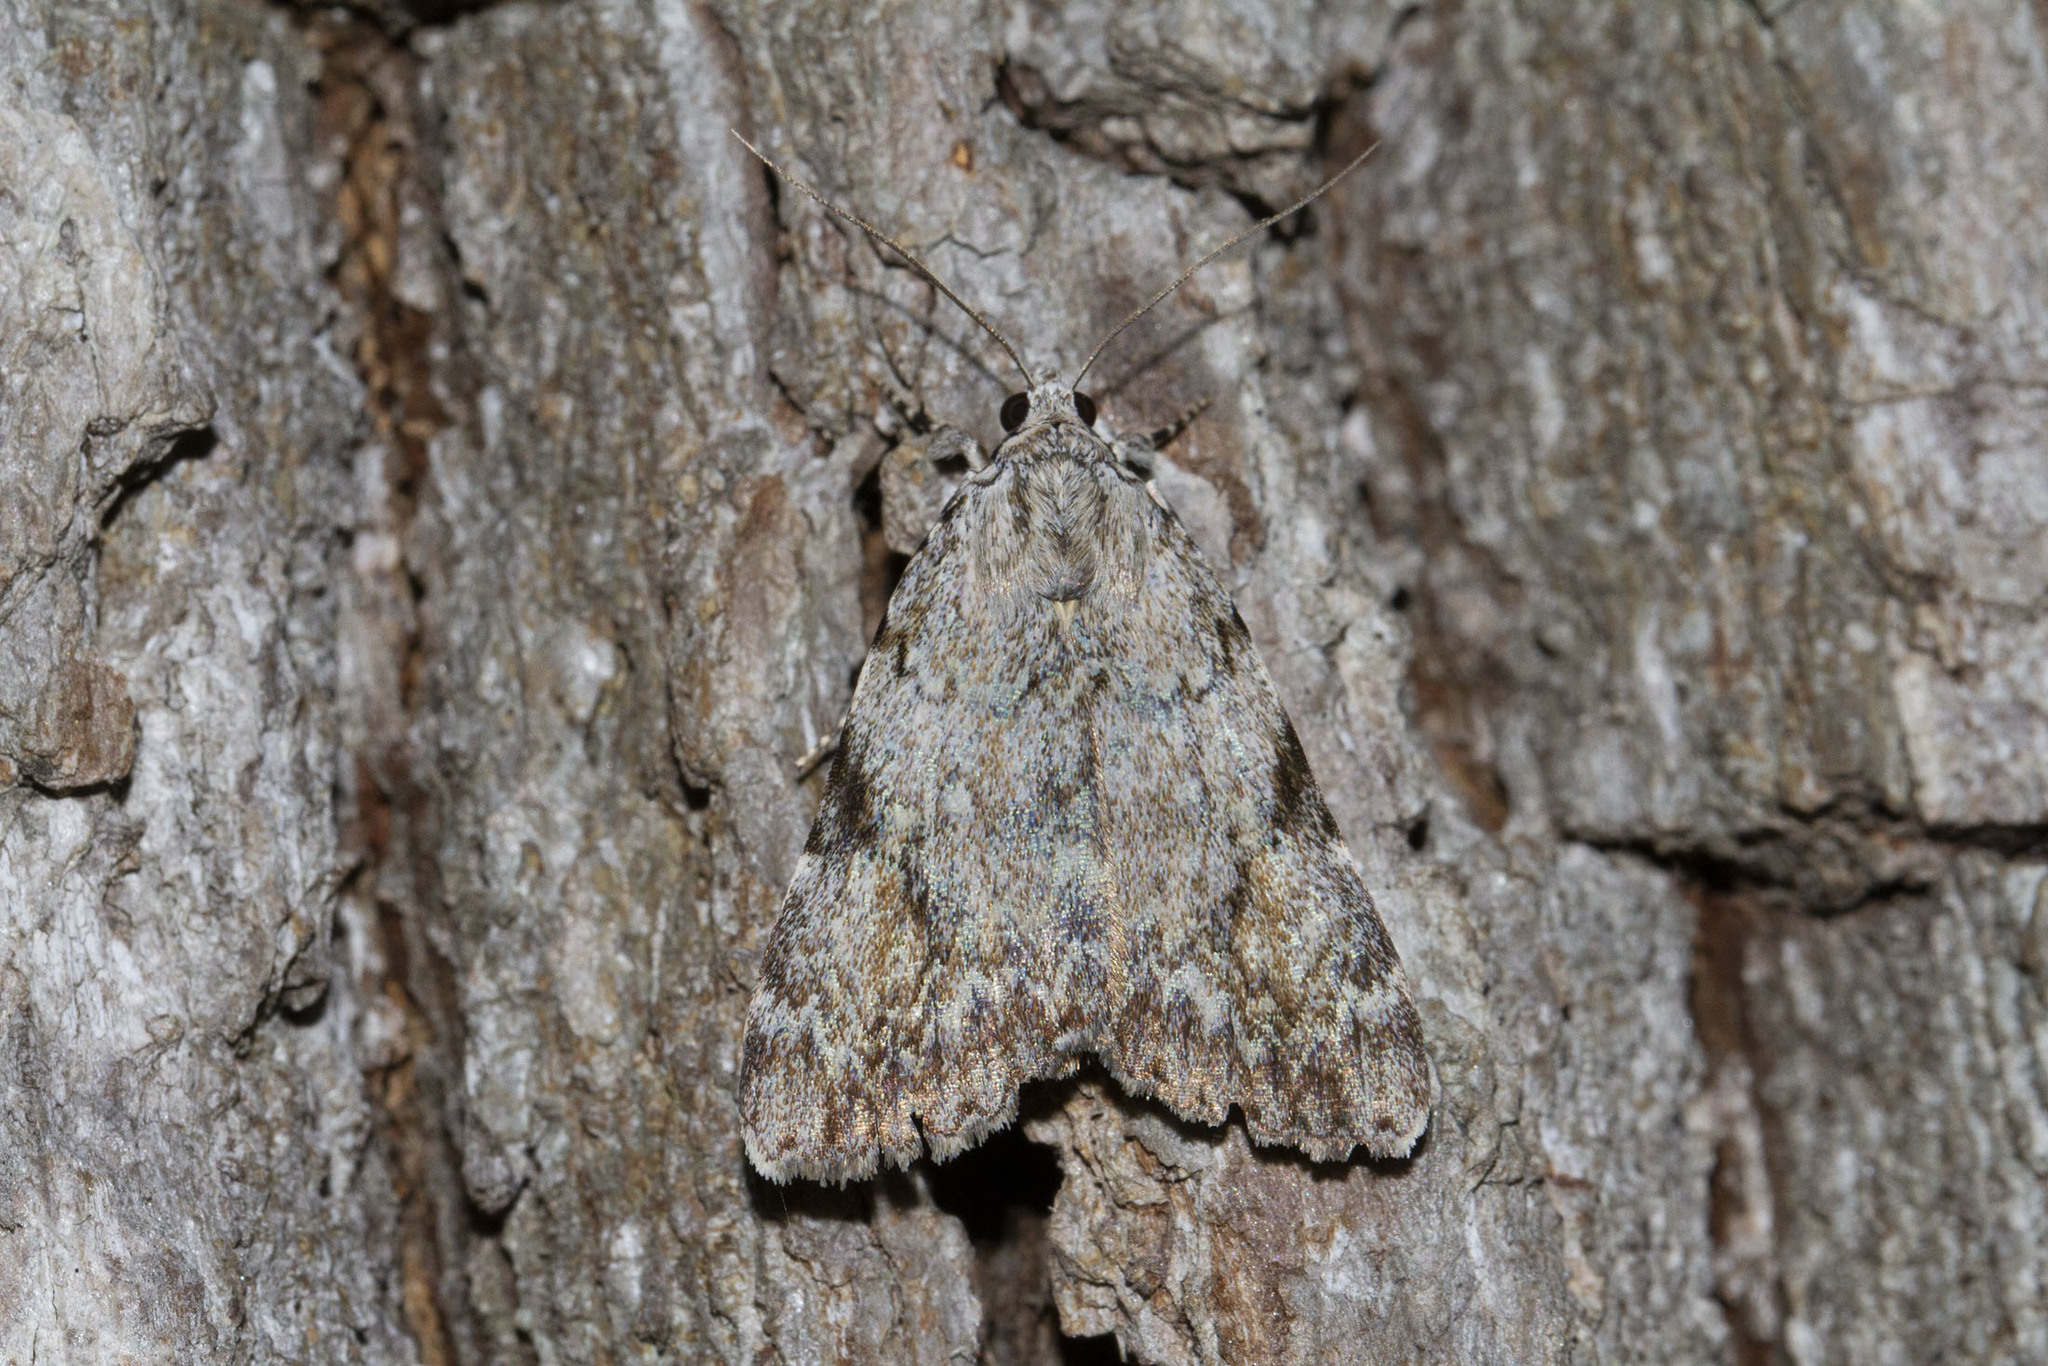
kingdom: Animalia
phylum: Arthropoda
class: Insecta
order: Lepidoptera
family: Erebidae
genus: Catocala
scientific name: Catocala amica
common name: Girlfriend underwing
